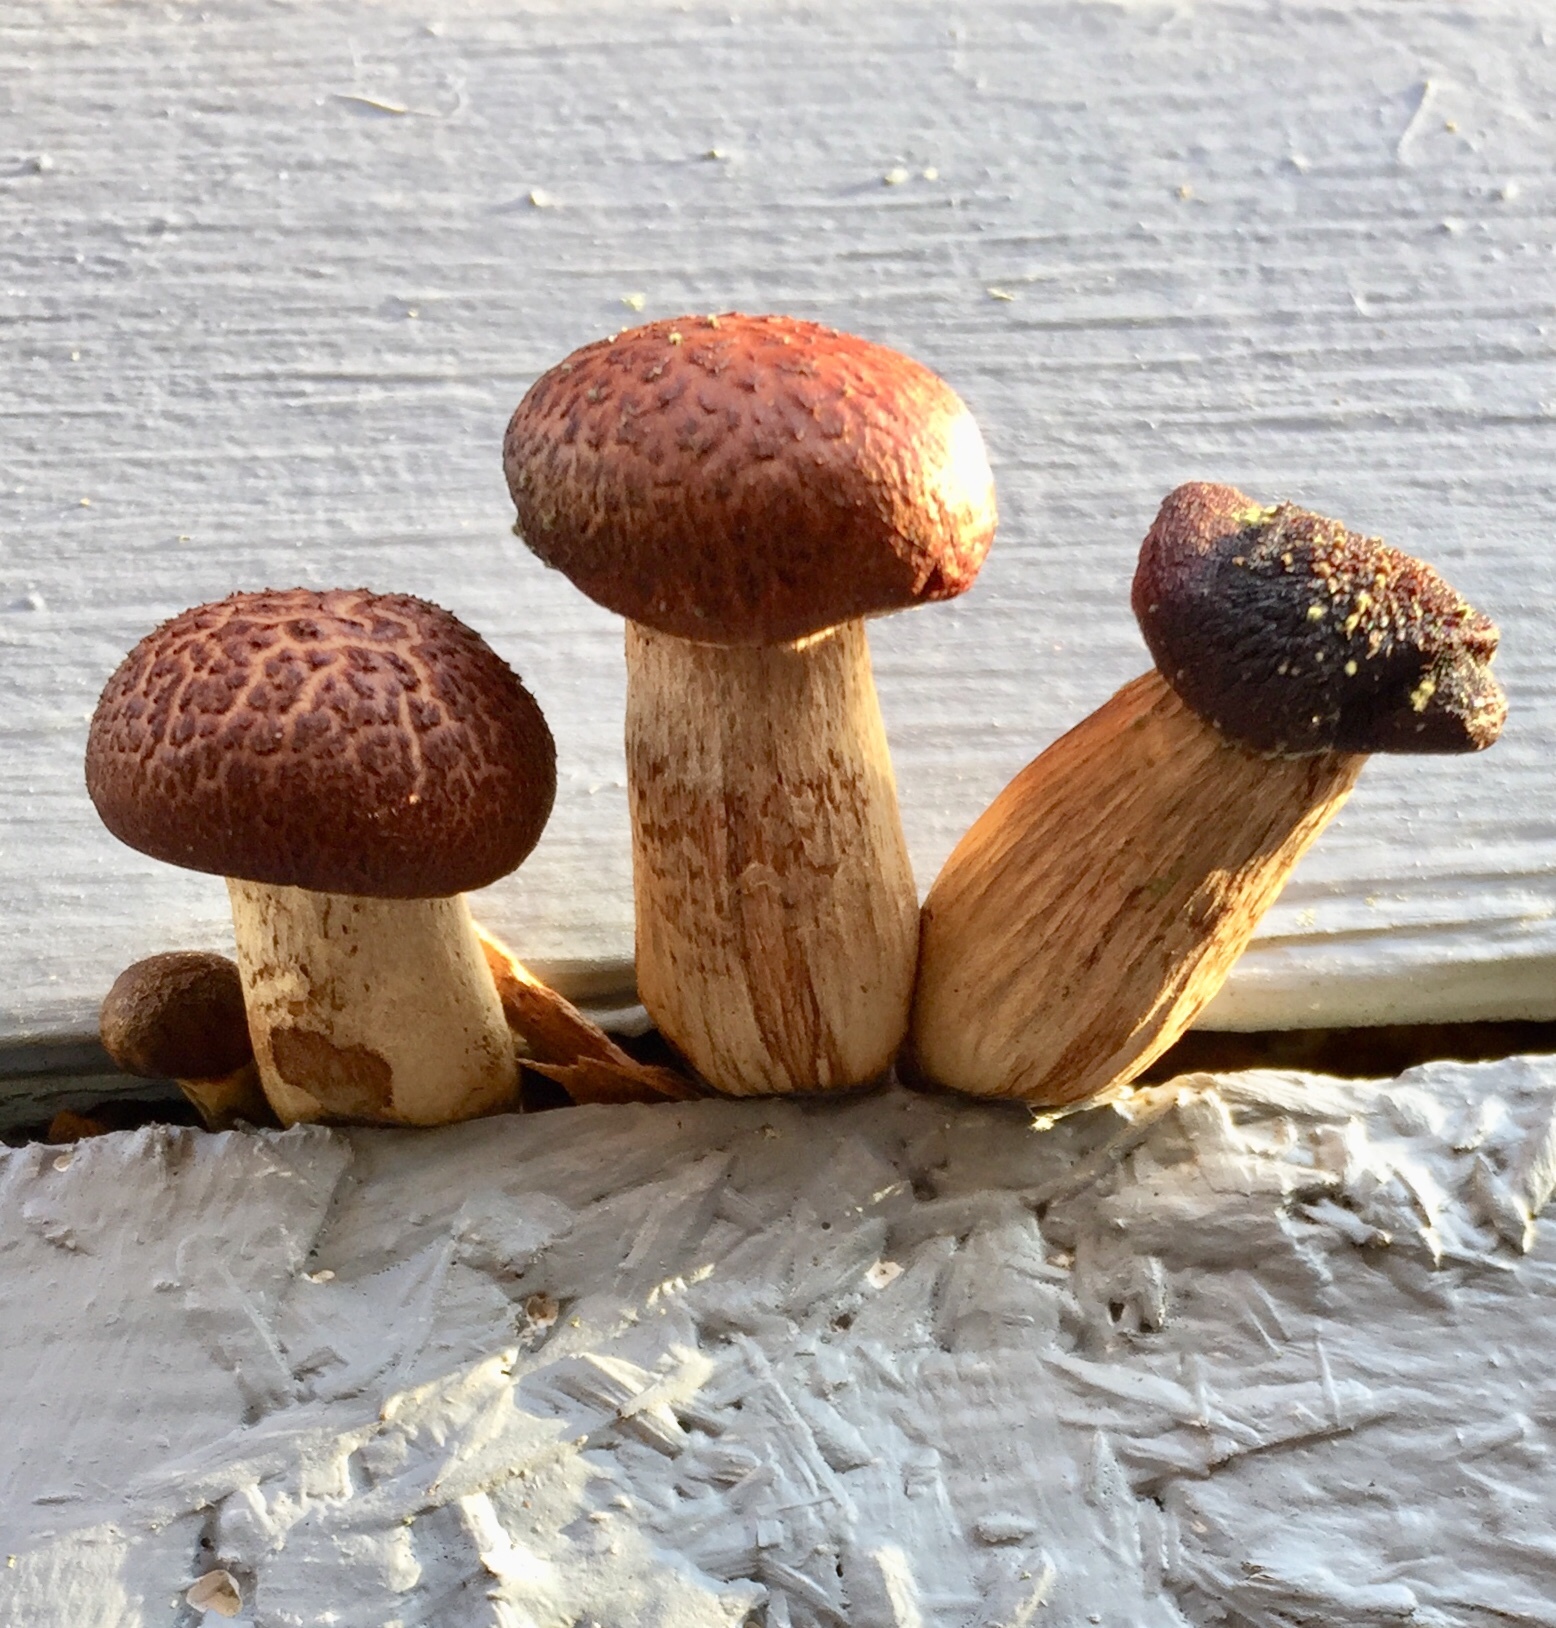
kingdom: Fungi
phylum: Basidiomycota
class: Agaricomycetes
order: Agaricales
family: Hymenogastraceae
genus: Gymnopilus
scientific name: Gymnopilus luteofolius
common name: Yellow-gilled gymnopilus
